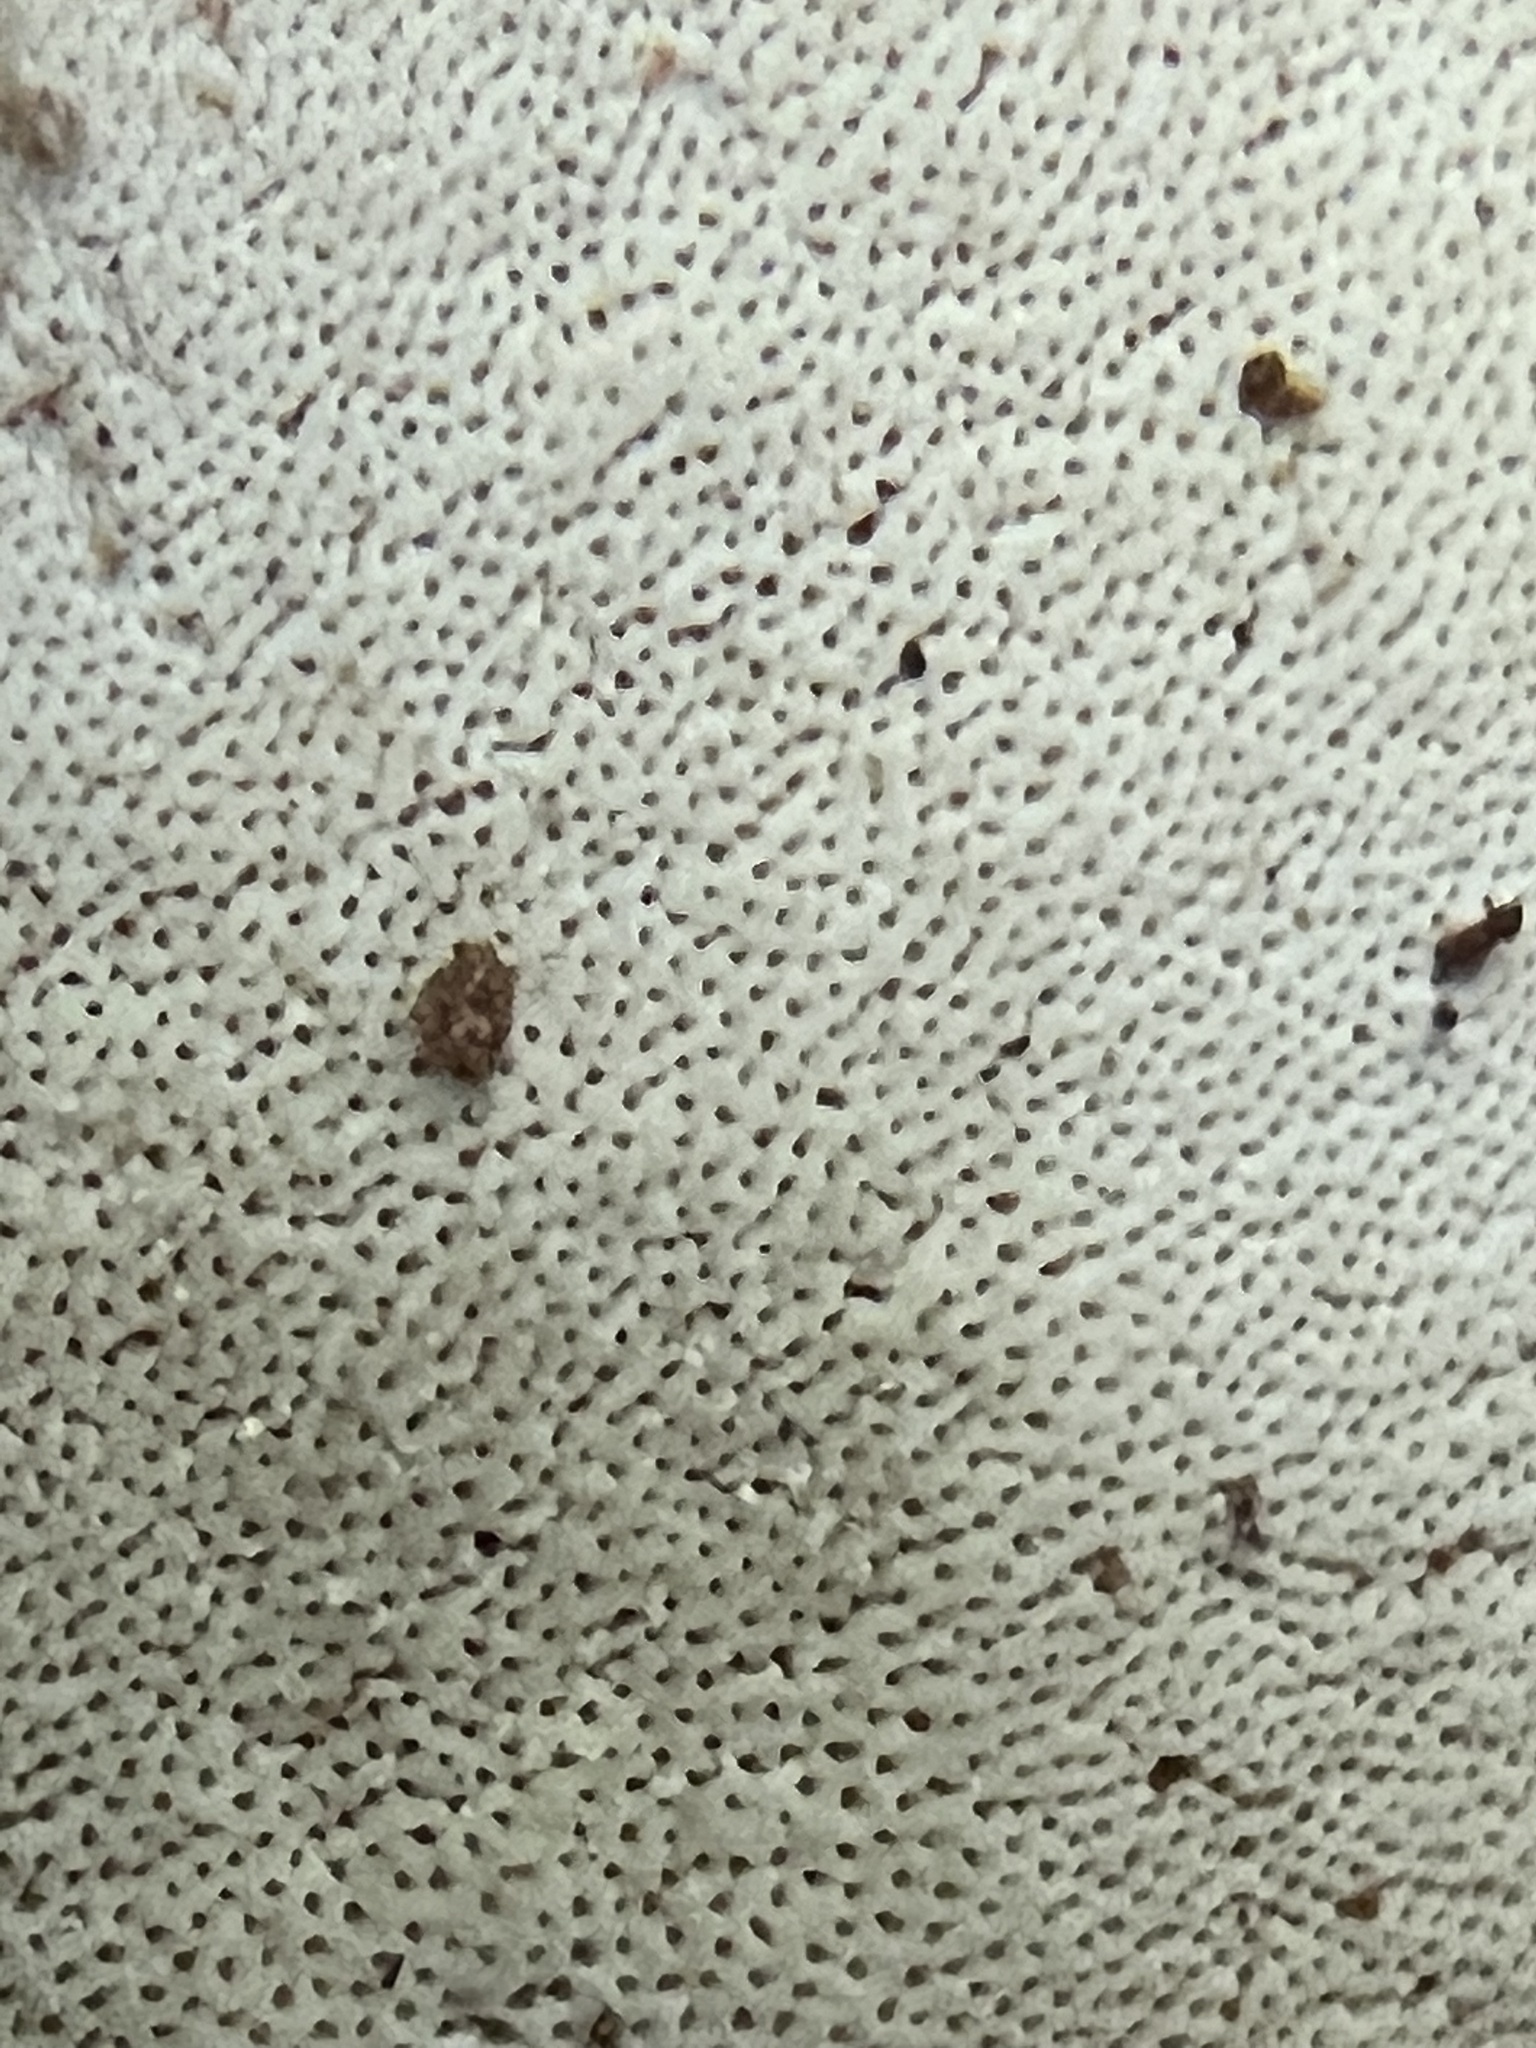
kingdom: Fungi
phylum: Basidiomycota
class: Agaricomycetes
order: Polyporales
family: Polyporaceae
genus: Ganoderma
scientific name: Ganoderma curtisii
